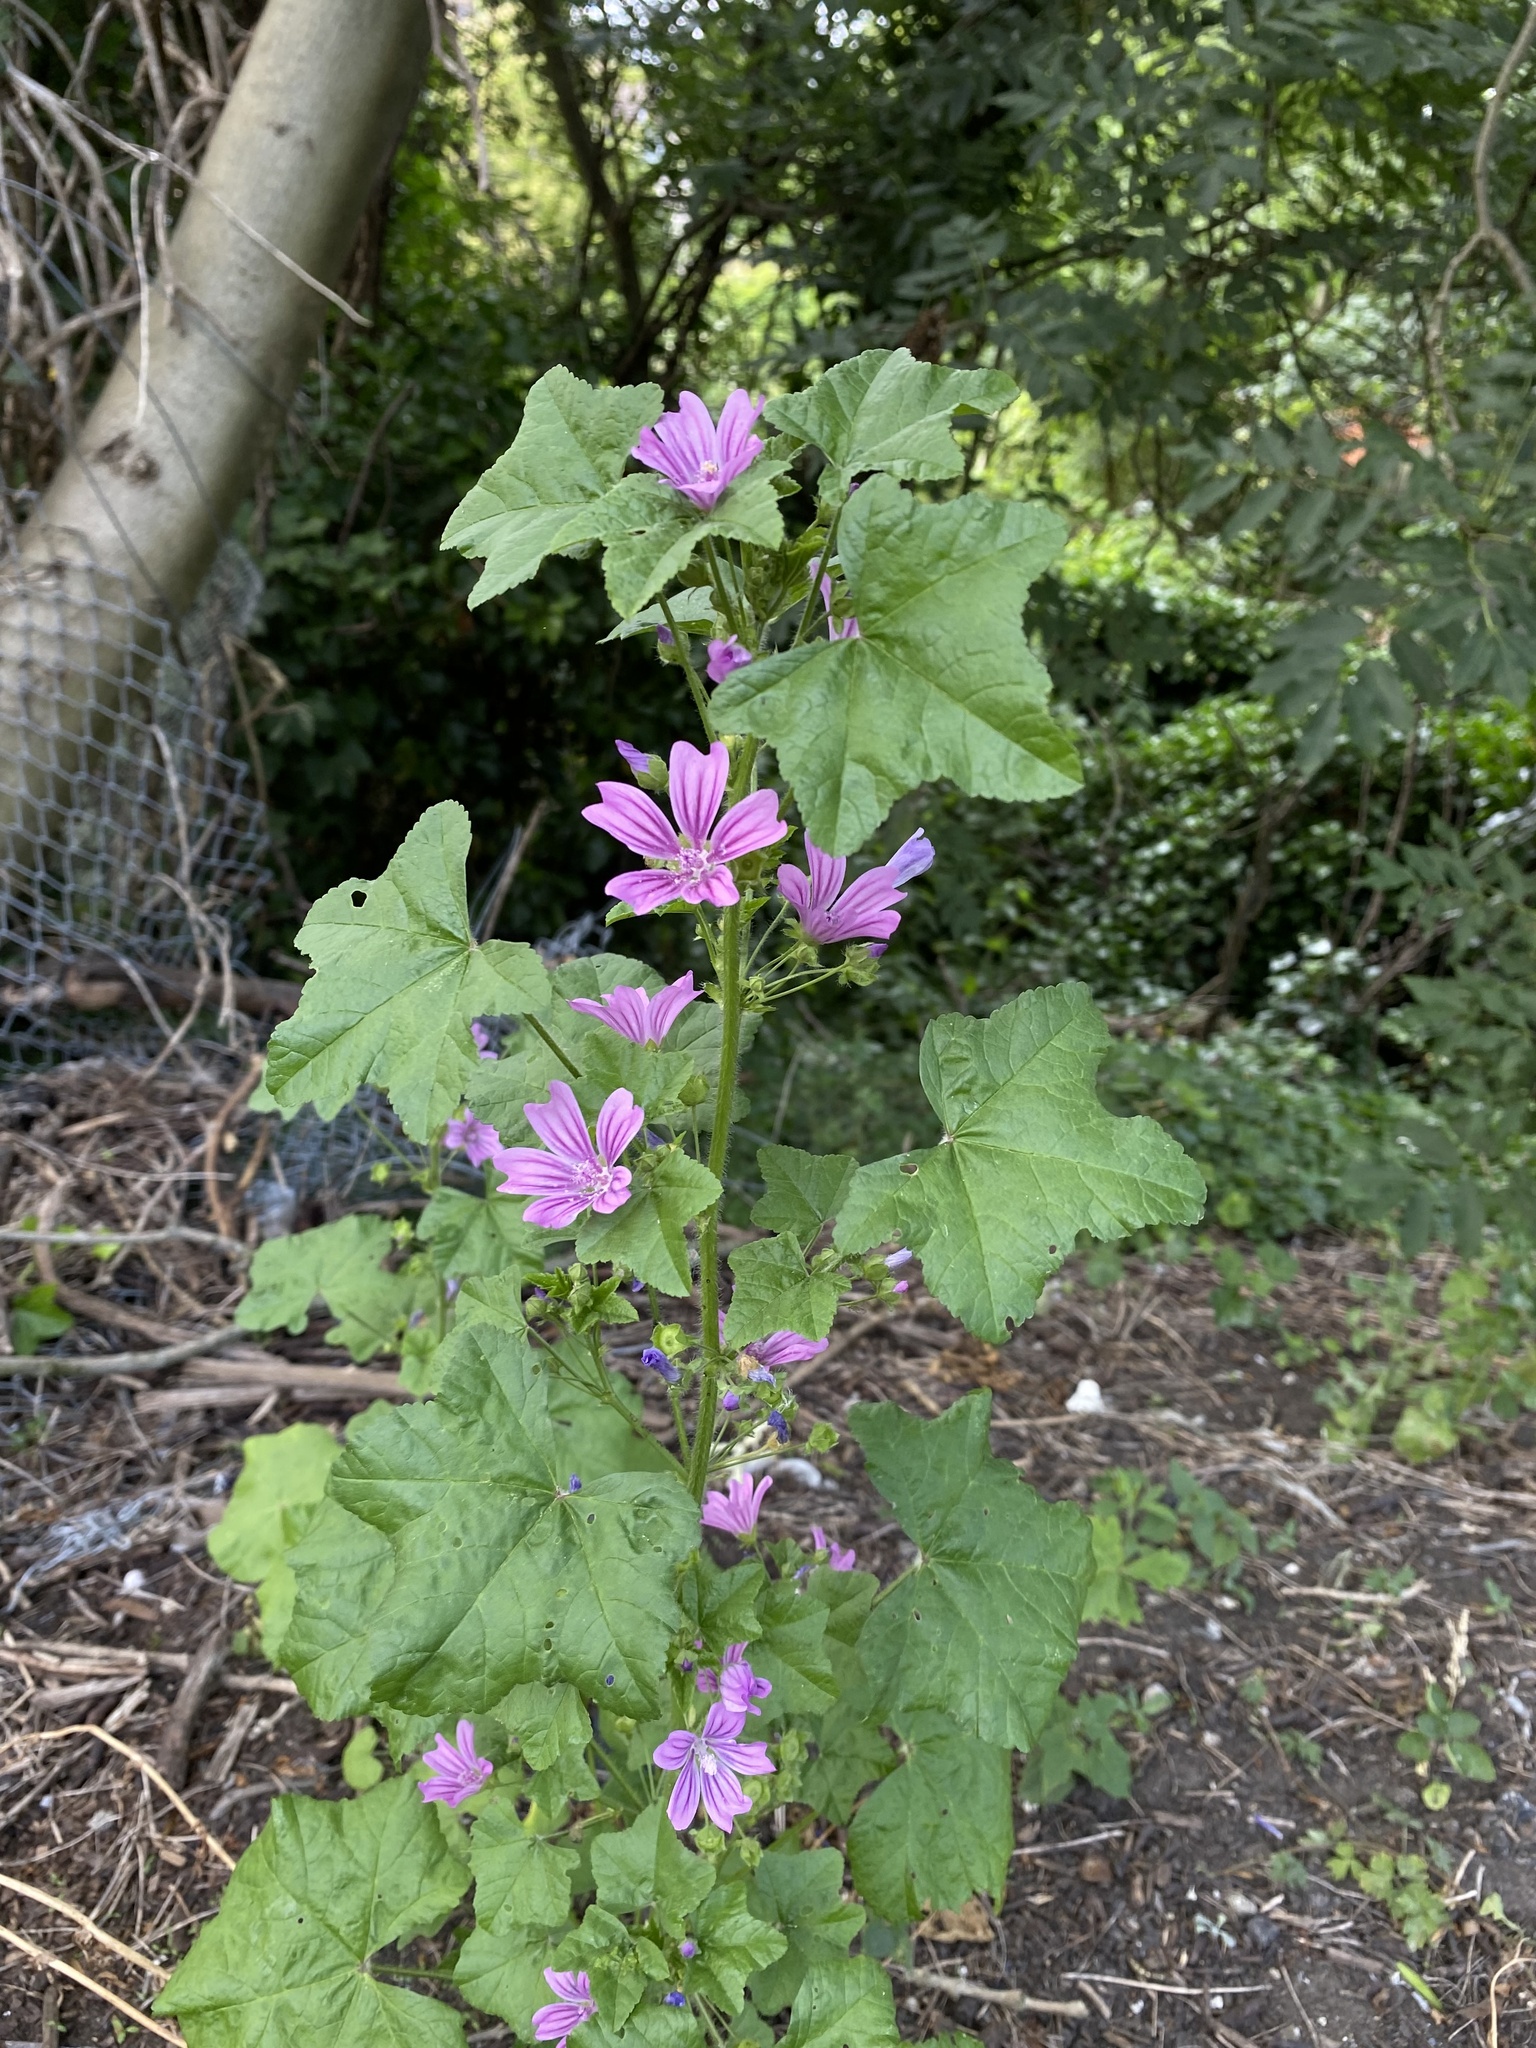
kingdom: Plantae
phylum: Tracheophyta
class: Magnoliopsida
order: Malvales
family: Malvaceae
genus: Malva
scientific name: Malva sylvestris
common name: Common mallow
